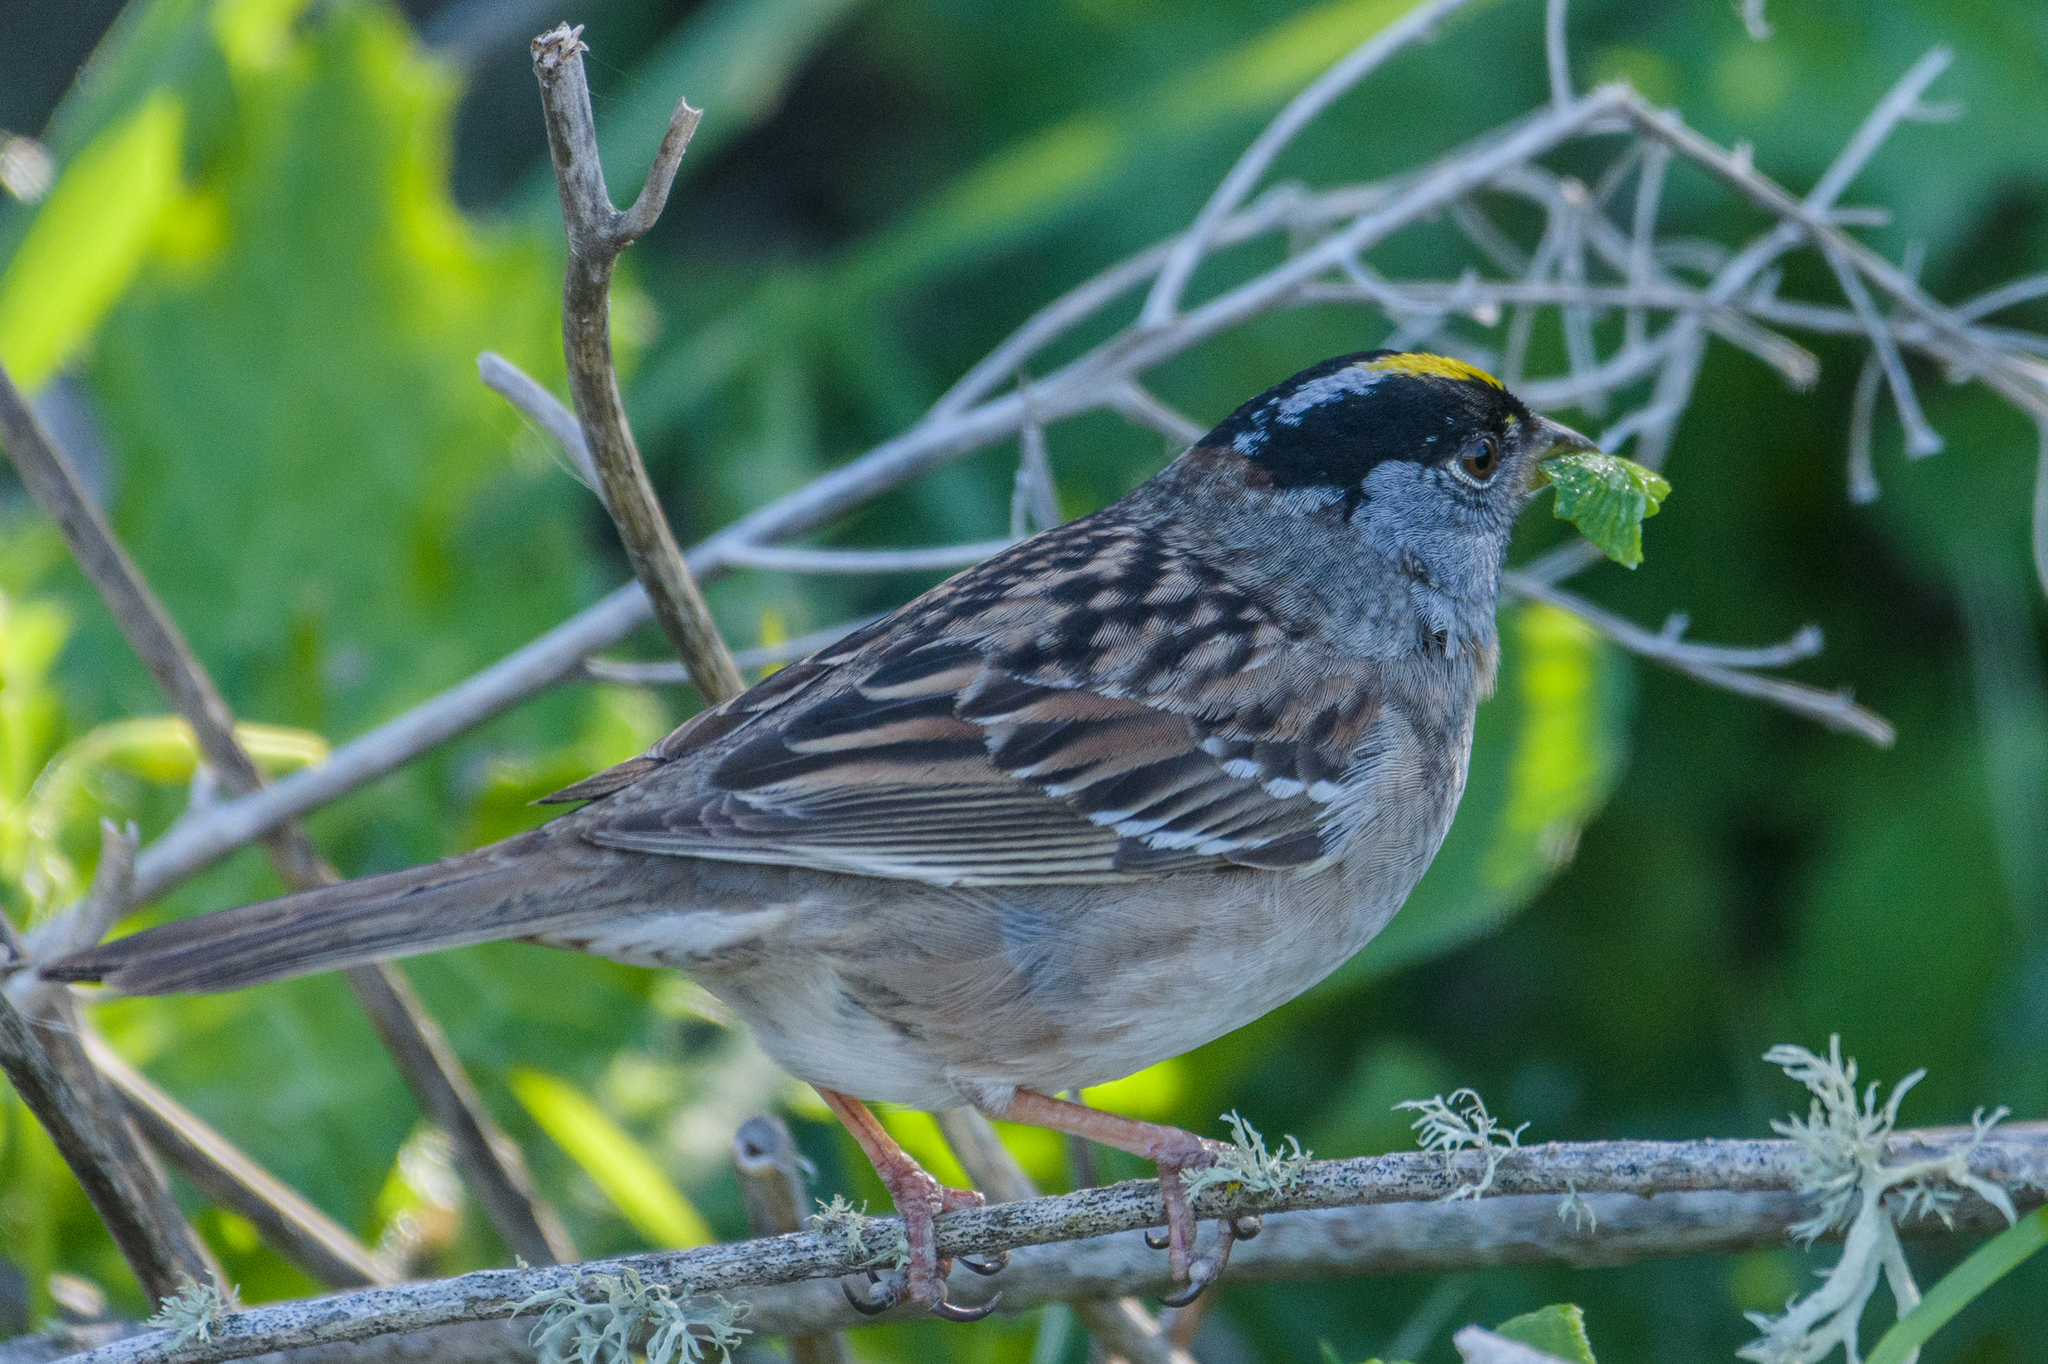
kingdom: Animalia
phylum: Chordata
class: Aves
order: Passeriformes
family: Passerellidae
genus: Zonotrichia
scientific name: Zonotrichia atricapilla
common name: Golden-crowned sparrow
